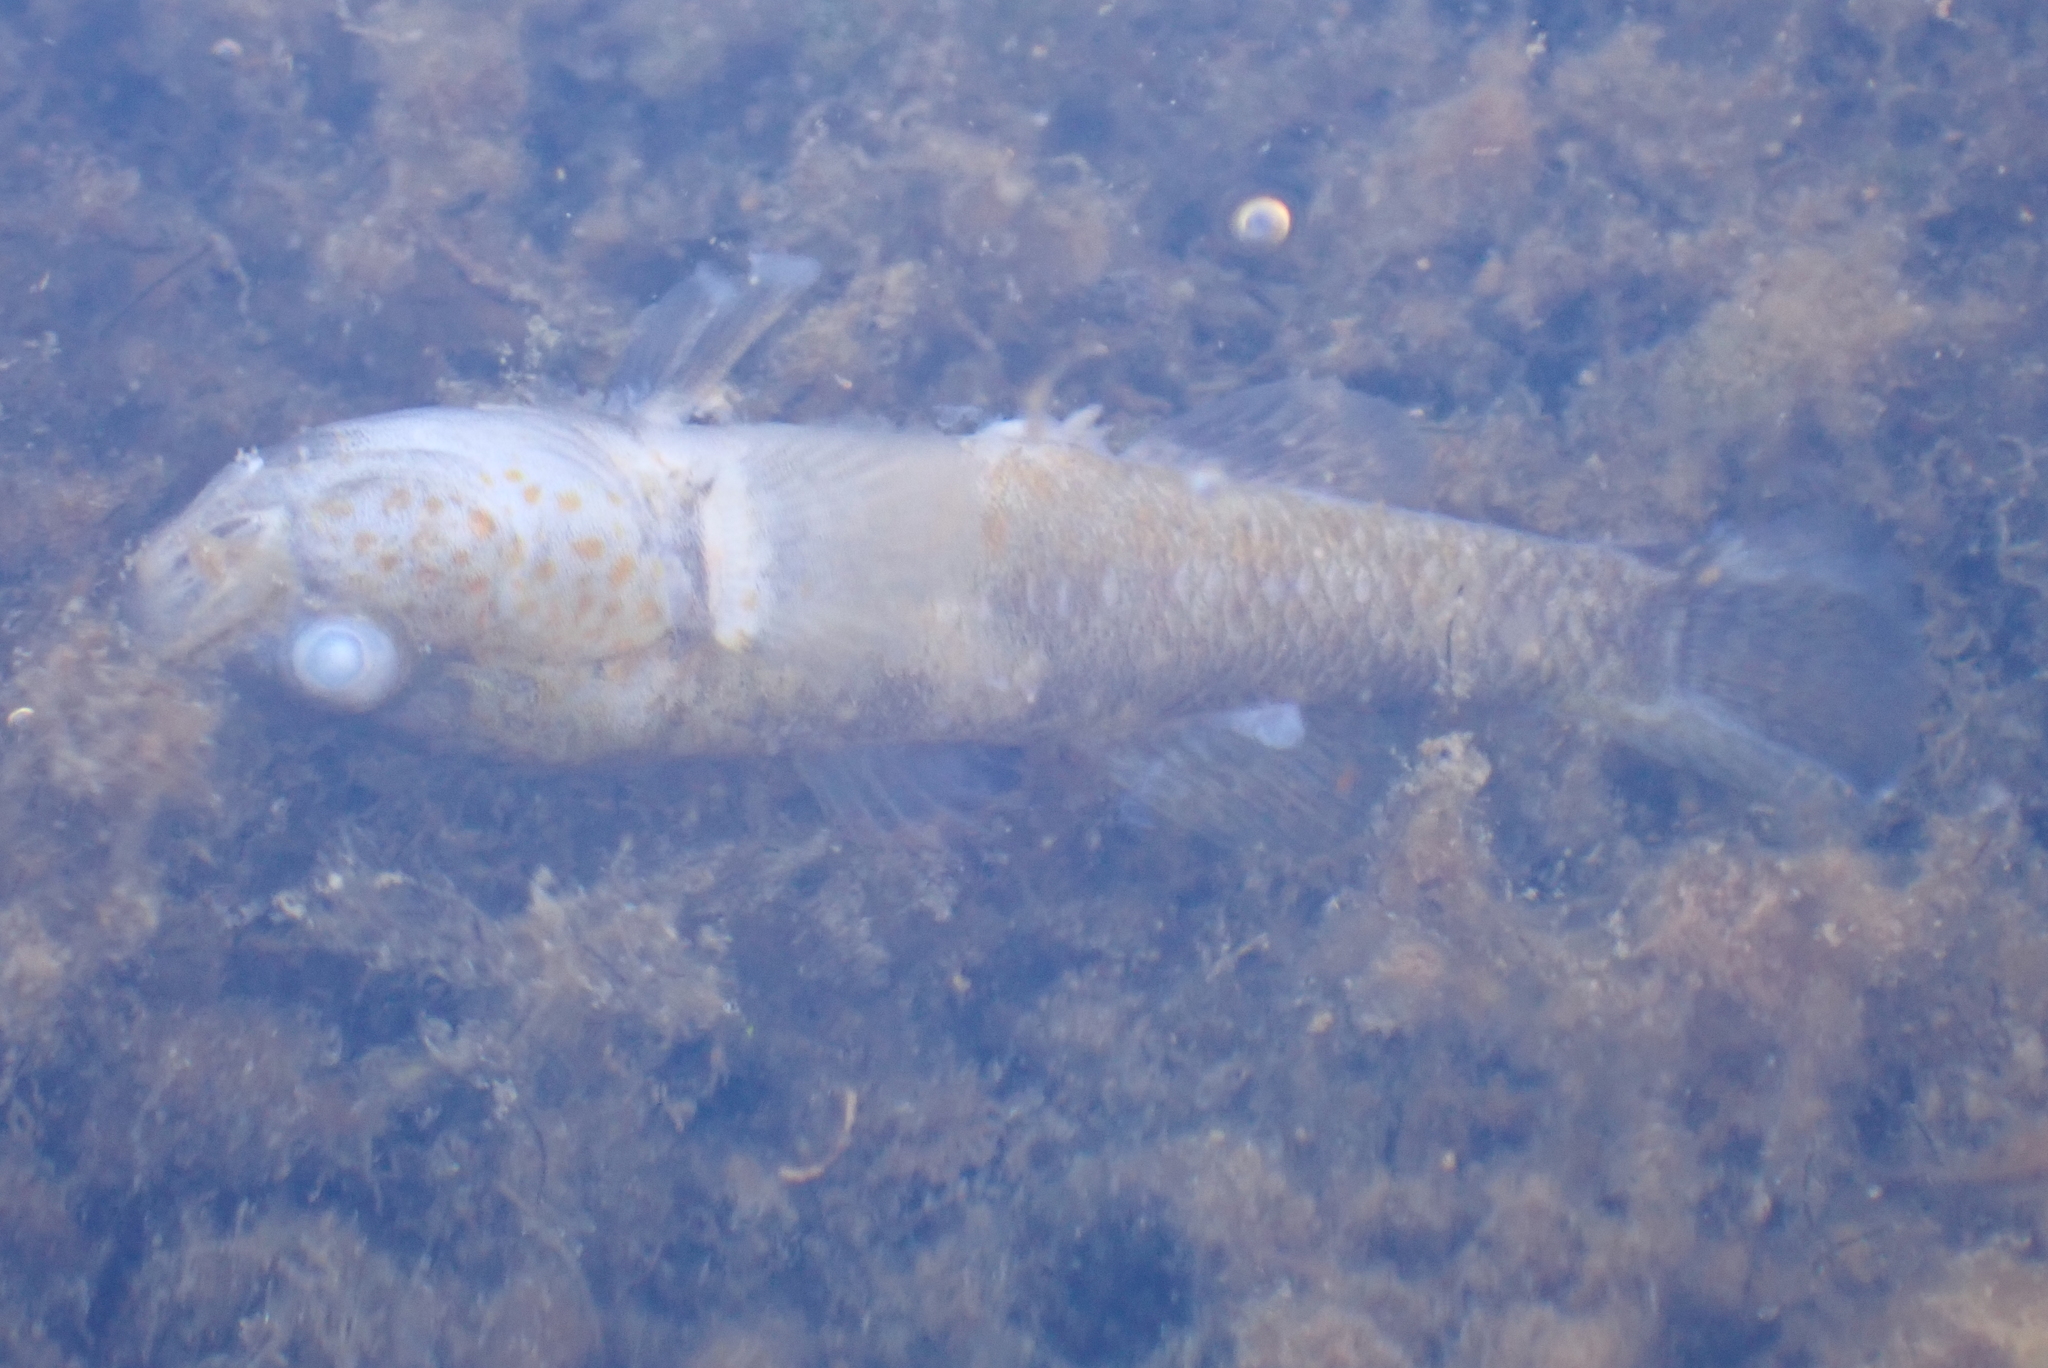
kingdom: Animalia
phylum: Chordata
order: Perciformes
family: Eleotridae
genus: Gobiomorphus
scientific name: Gobiomorphus breviceps
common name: Upland bully
